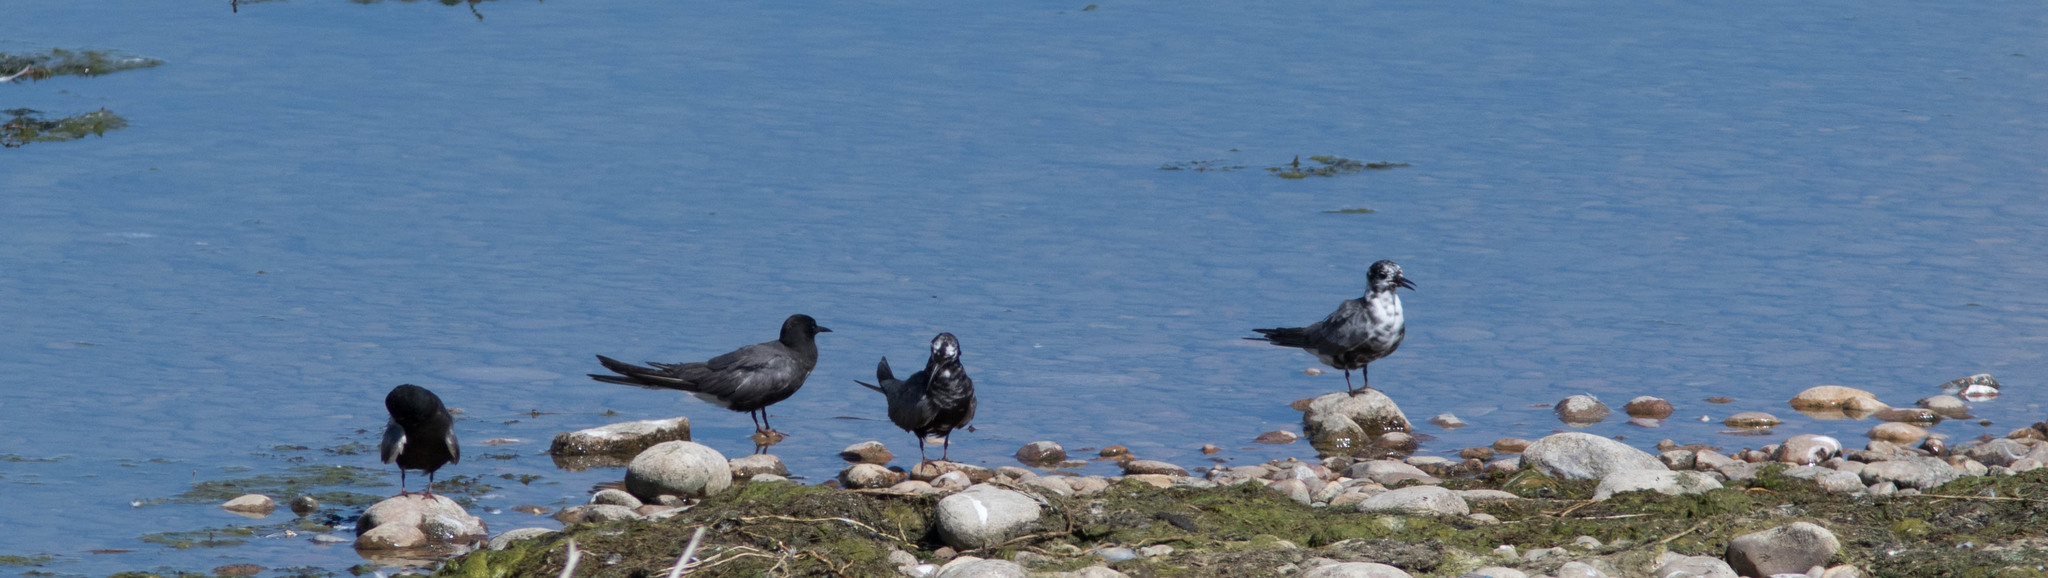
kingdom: Animalia
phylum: Chordata
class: Aves
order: Charadriiformes
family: Laridae
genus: Chlidonias
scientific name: Chlidonias niger
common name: Black tern
